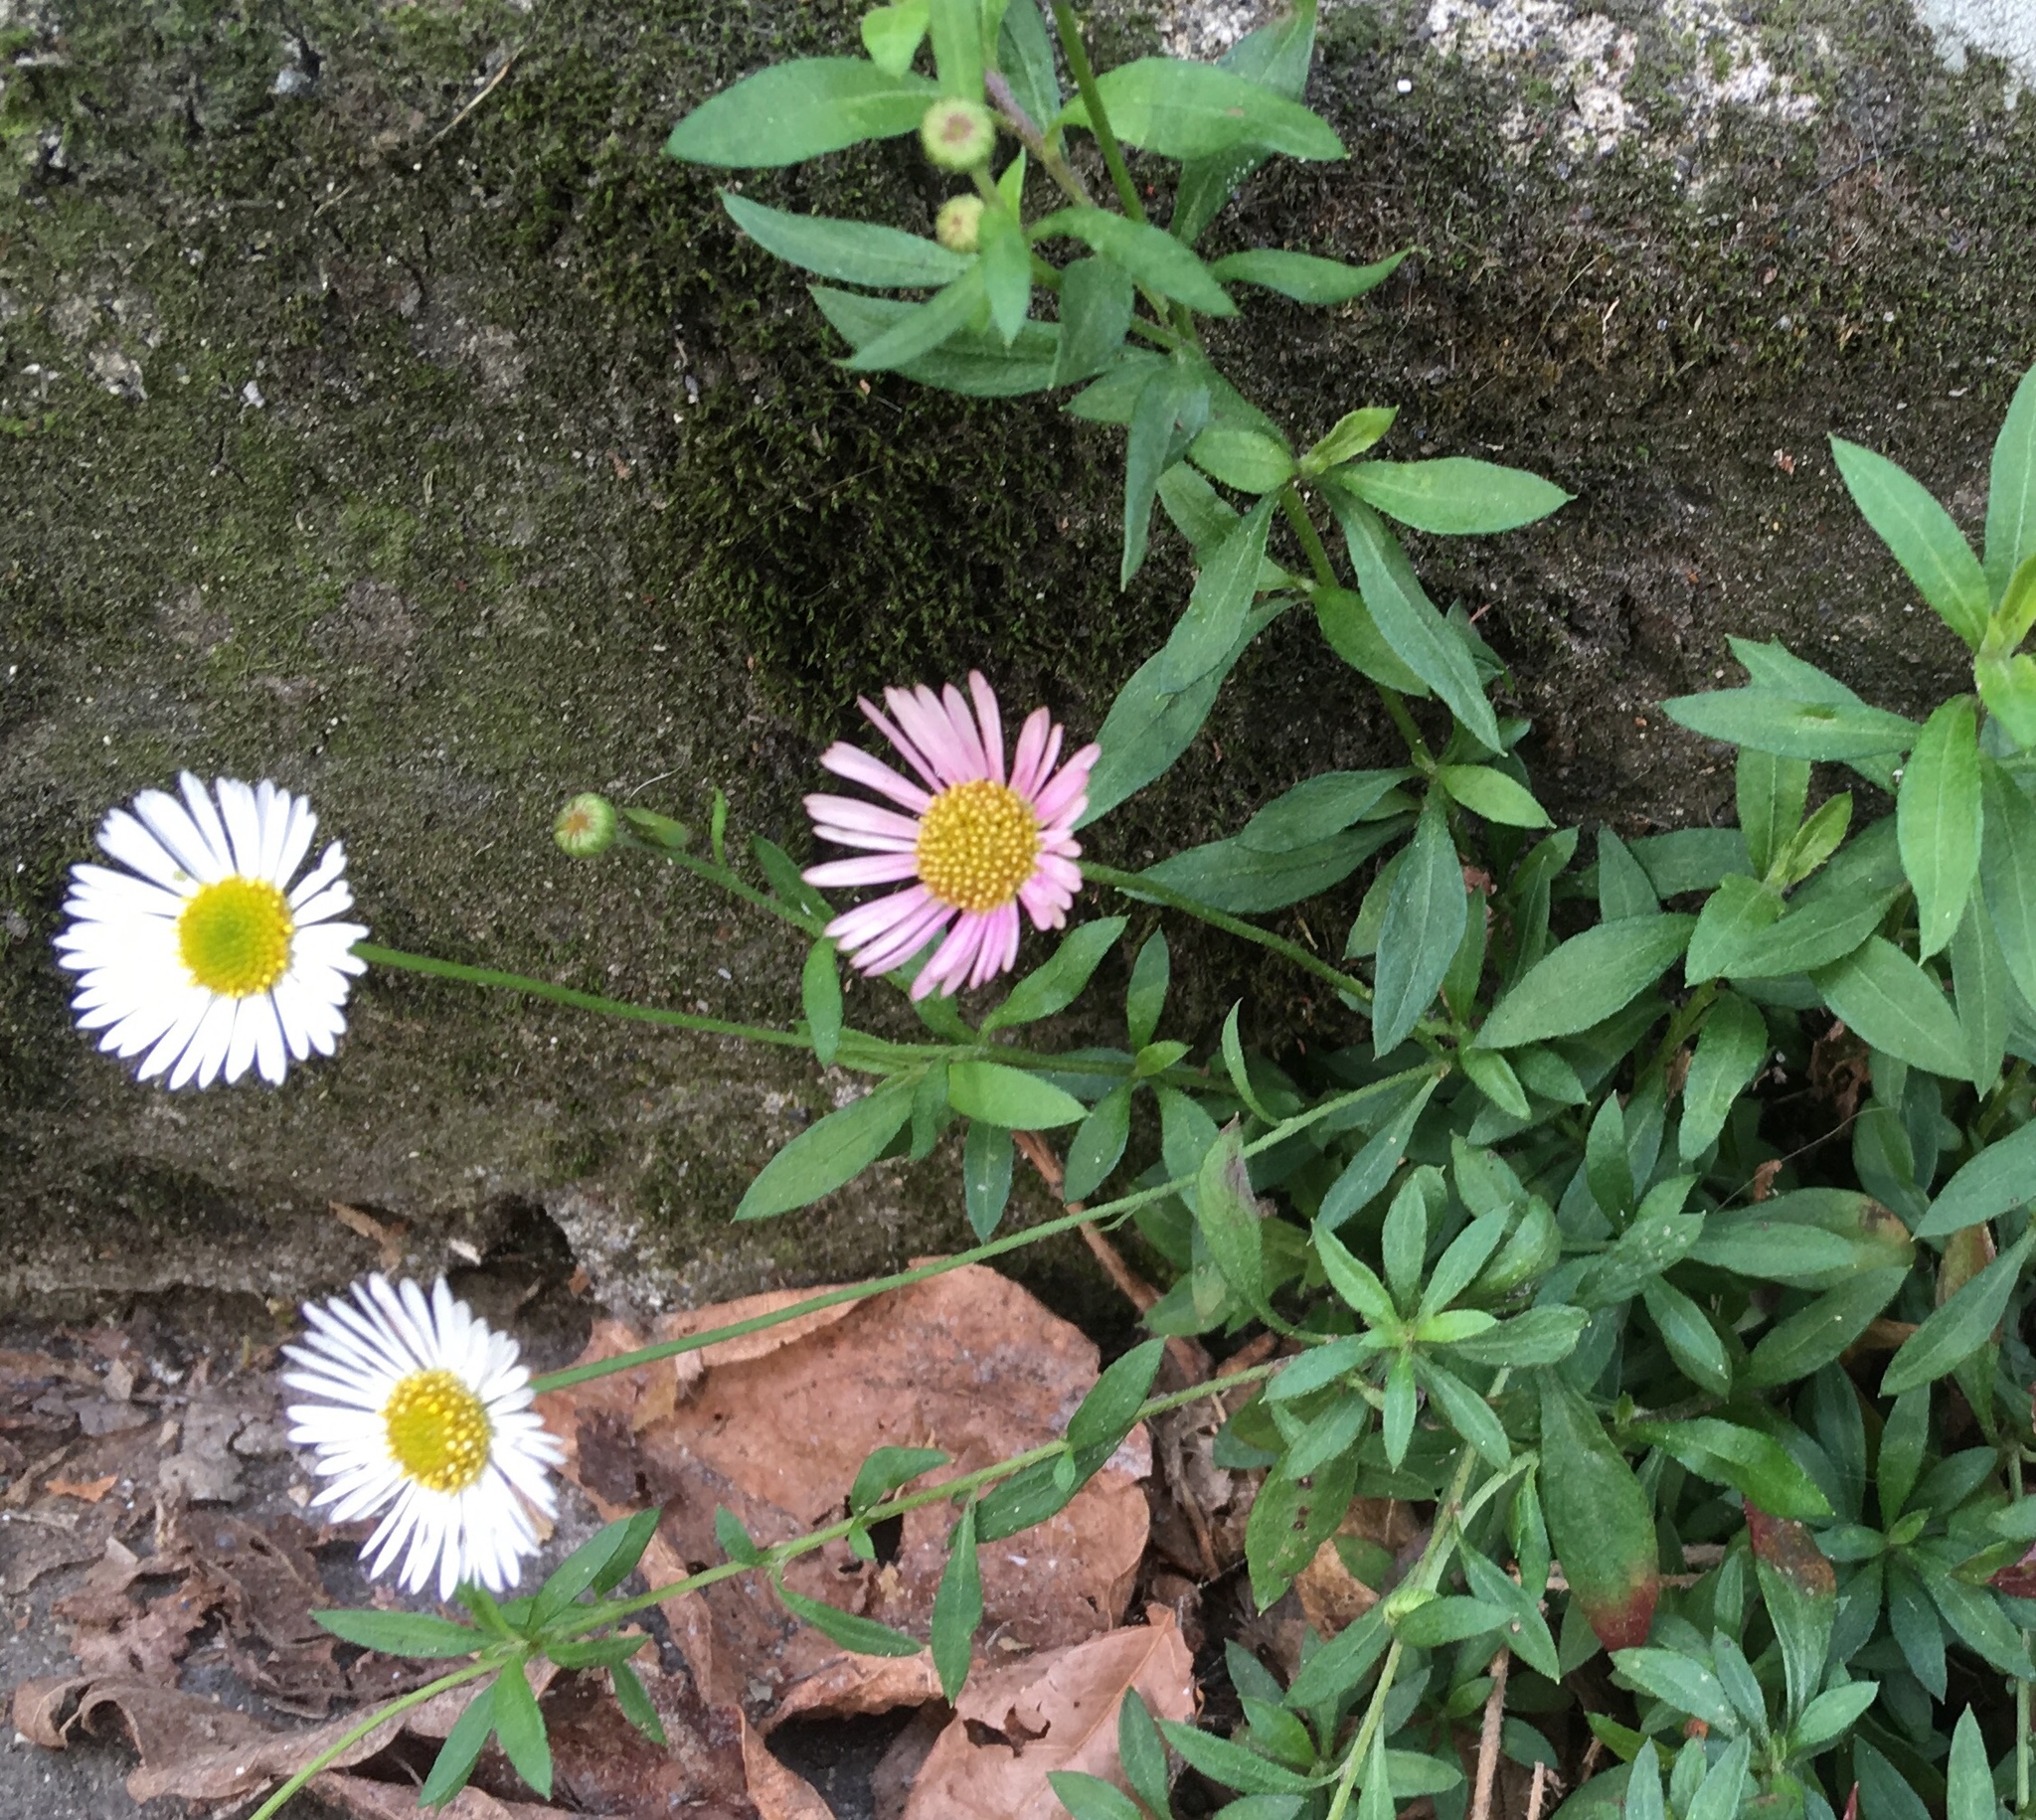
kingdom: Plantae
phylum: Tracheophyta
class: Magnoliopsida
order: Asterales
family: Asteraceae
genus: Erigeron
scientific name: Erigeron karvinskianus
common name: Mexican fleabane
